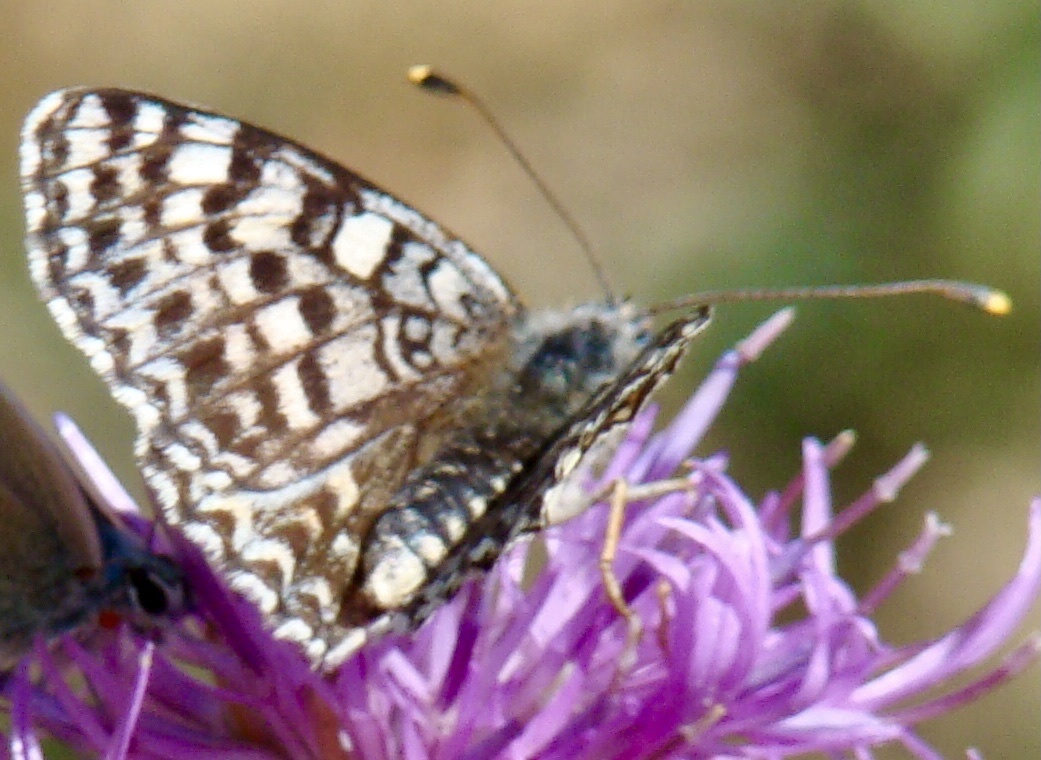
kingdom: Animalia
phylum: Arthropoda
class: Insecta
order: Lepidoptera
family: Nymphalidae
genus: Melitaea
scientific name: Melitaea didyma
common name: Spotted fritillary
